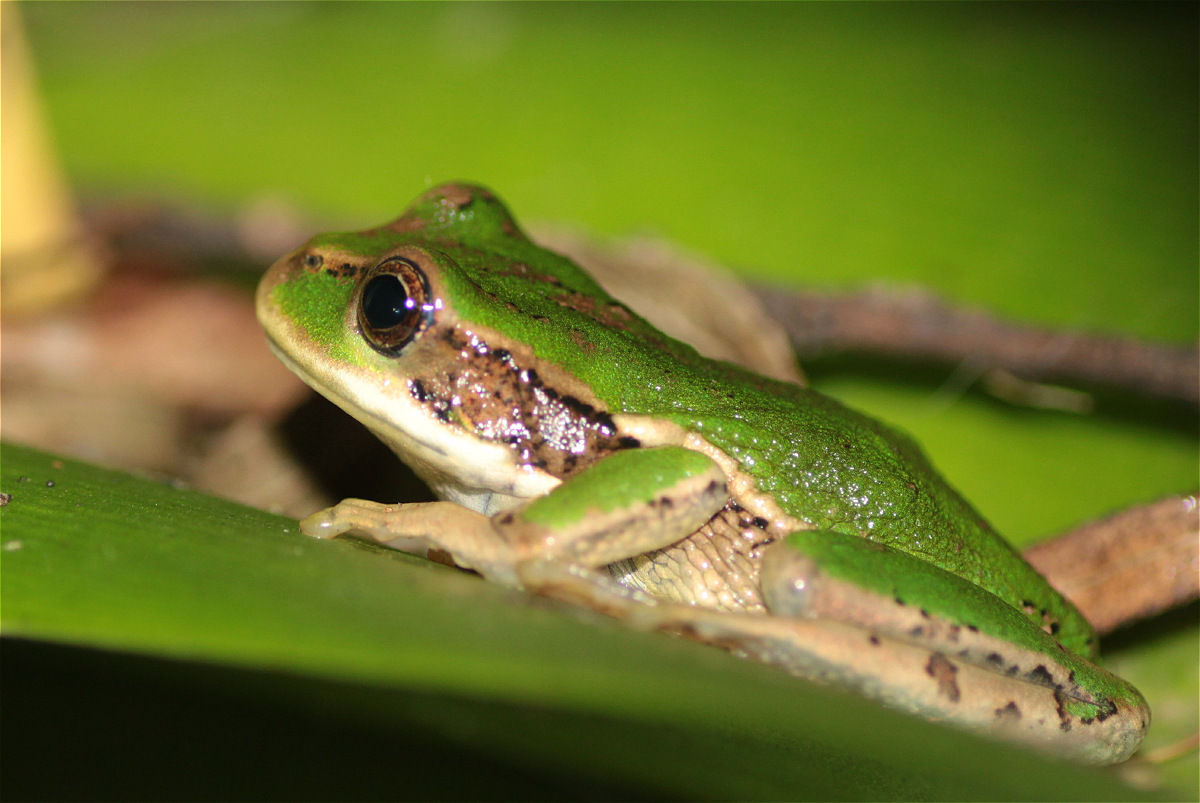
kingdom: Animalia
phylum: Chordata
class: Amphibia
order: Anura
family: Hemiphractidae
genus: Gastrotheca
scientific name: Gastrotheca cuencana
